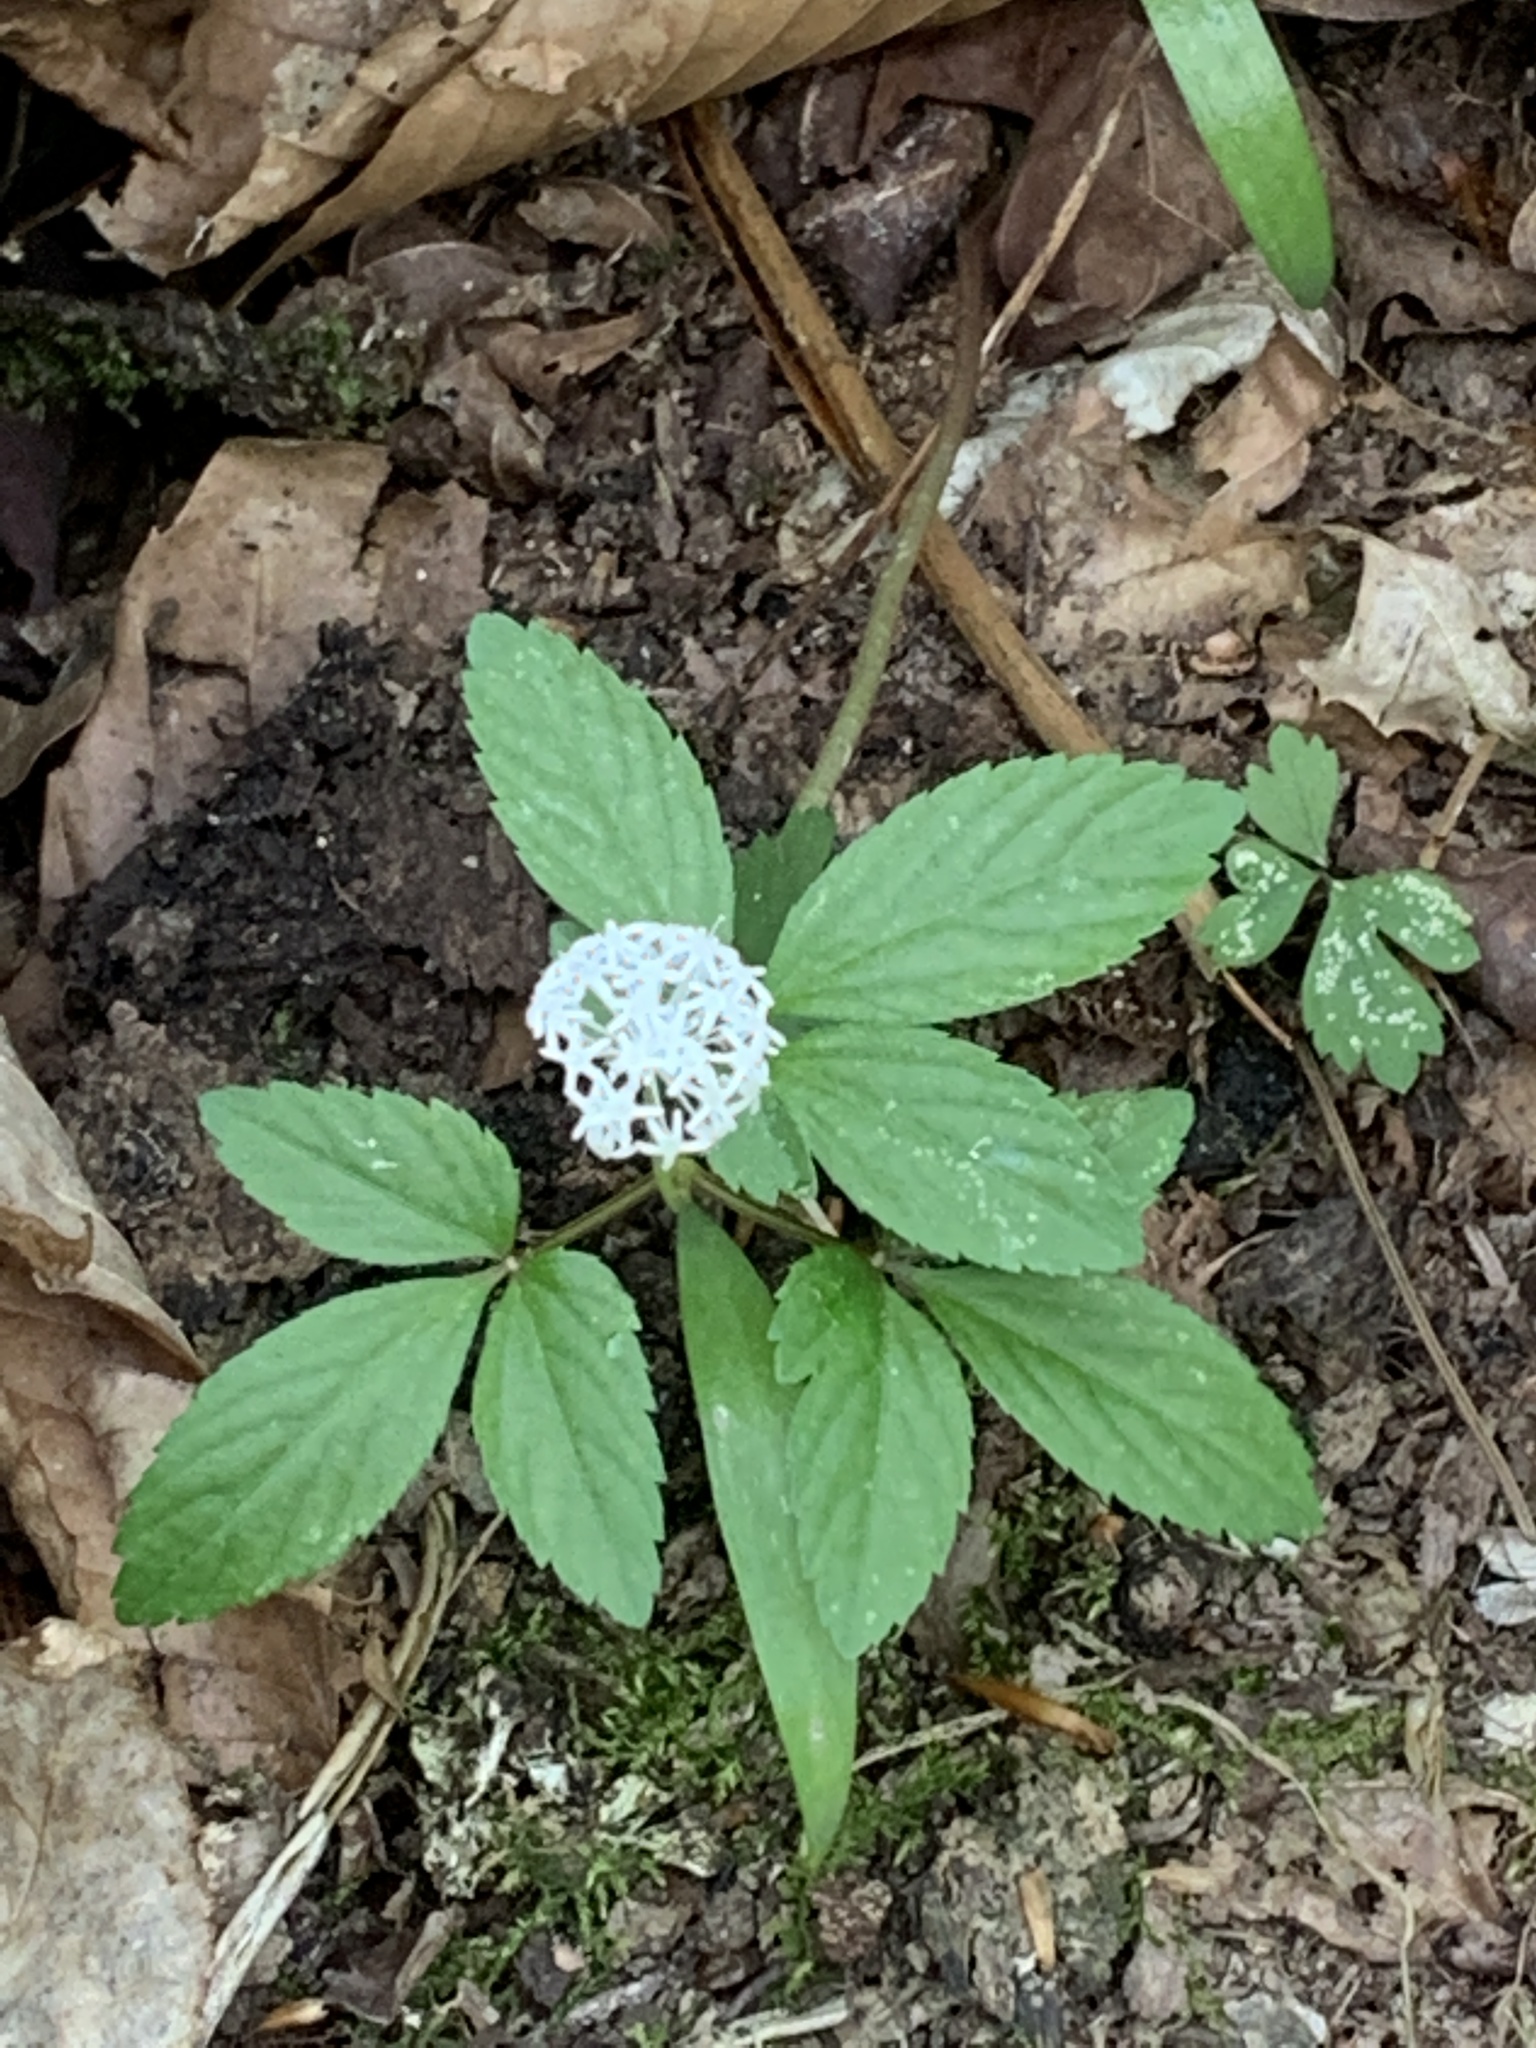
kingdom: Plantae
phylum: Tracheophyta
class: Magnoliopsida
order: Apiales
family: Araliaceae
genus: Panax
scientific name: Panax trifolius
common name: Dwarf ginseng
